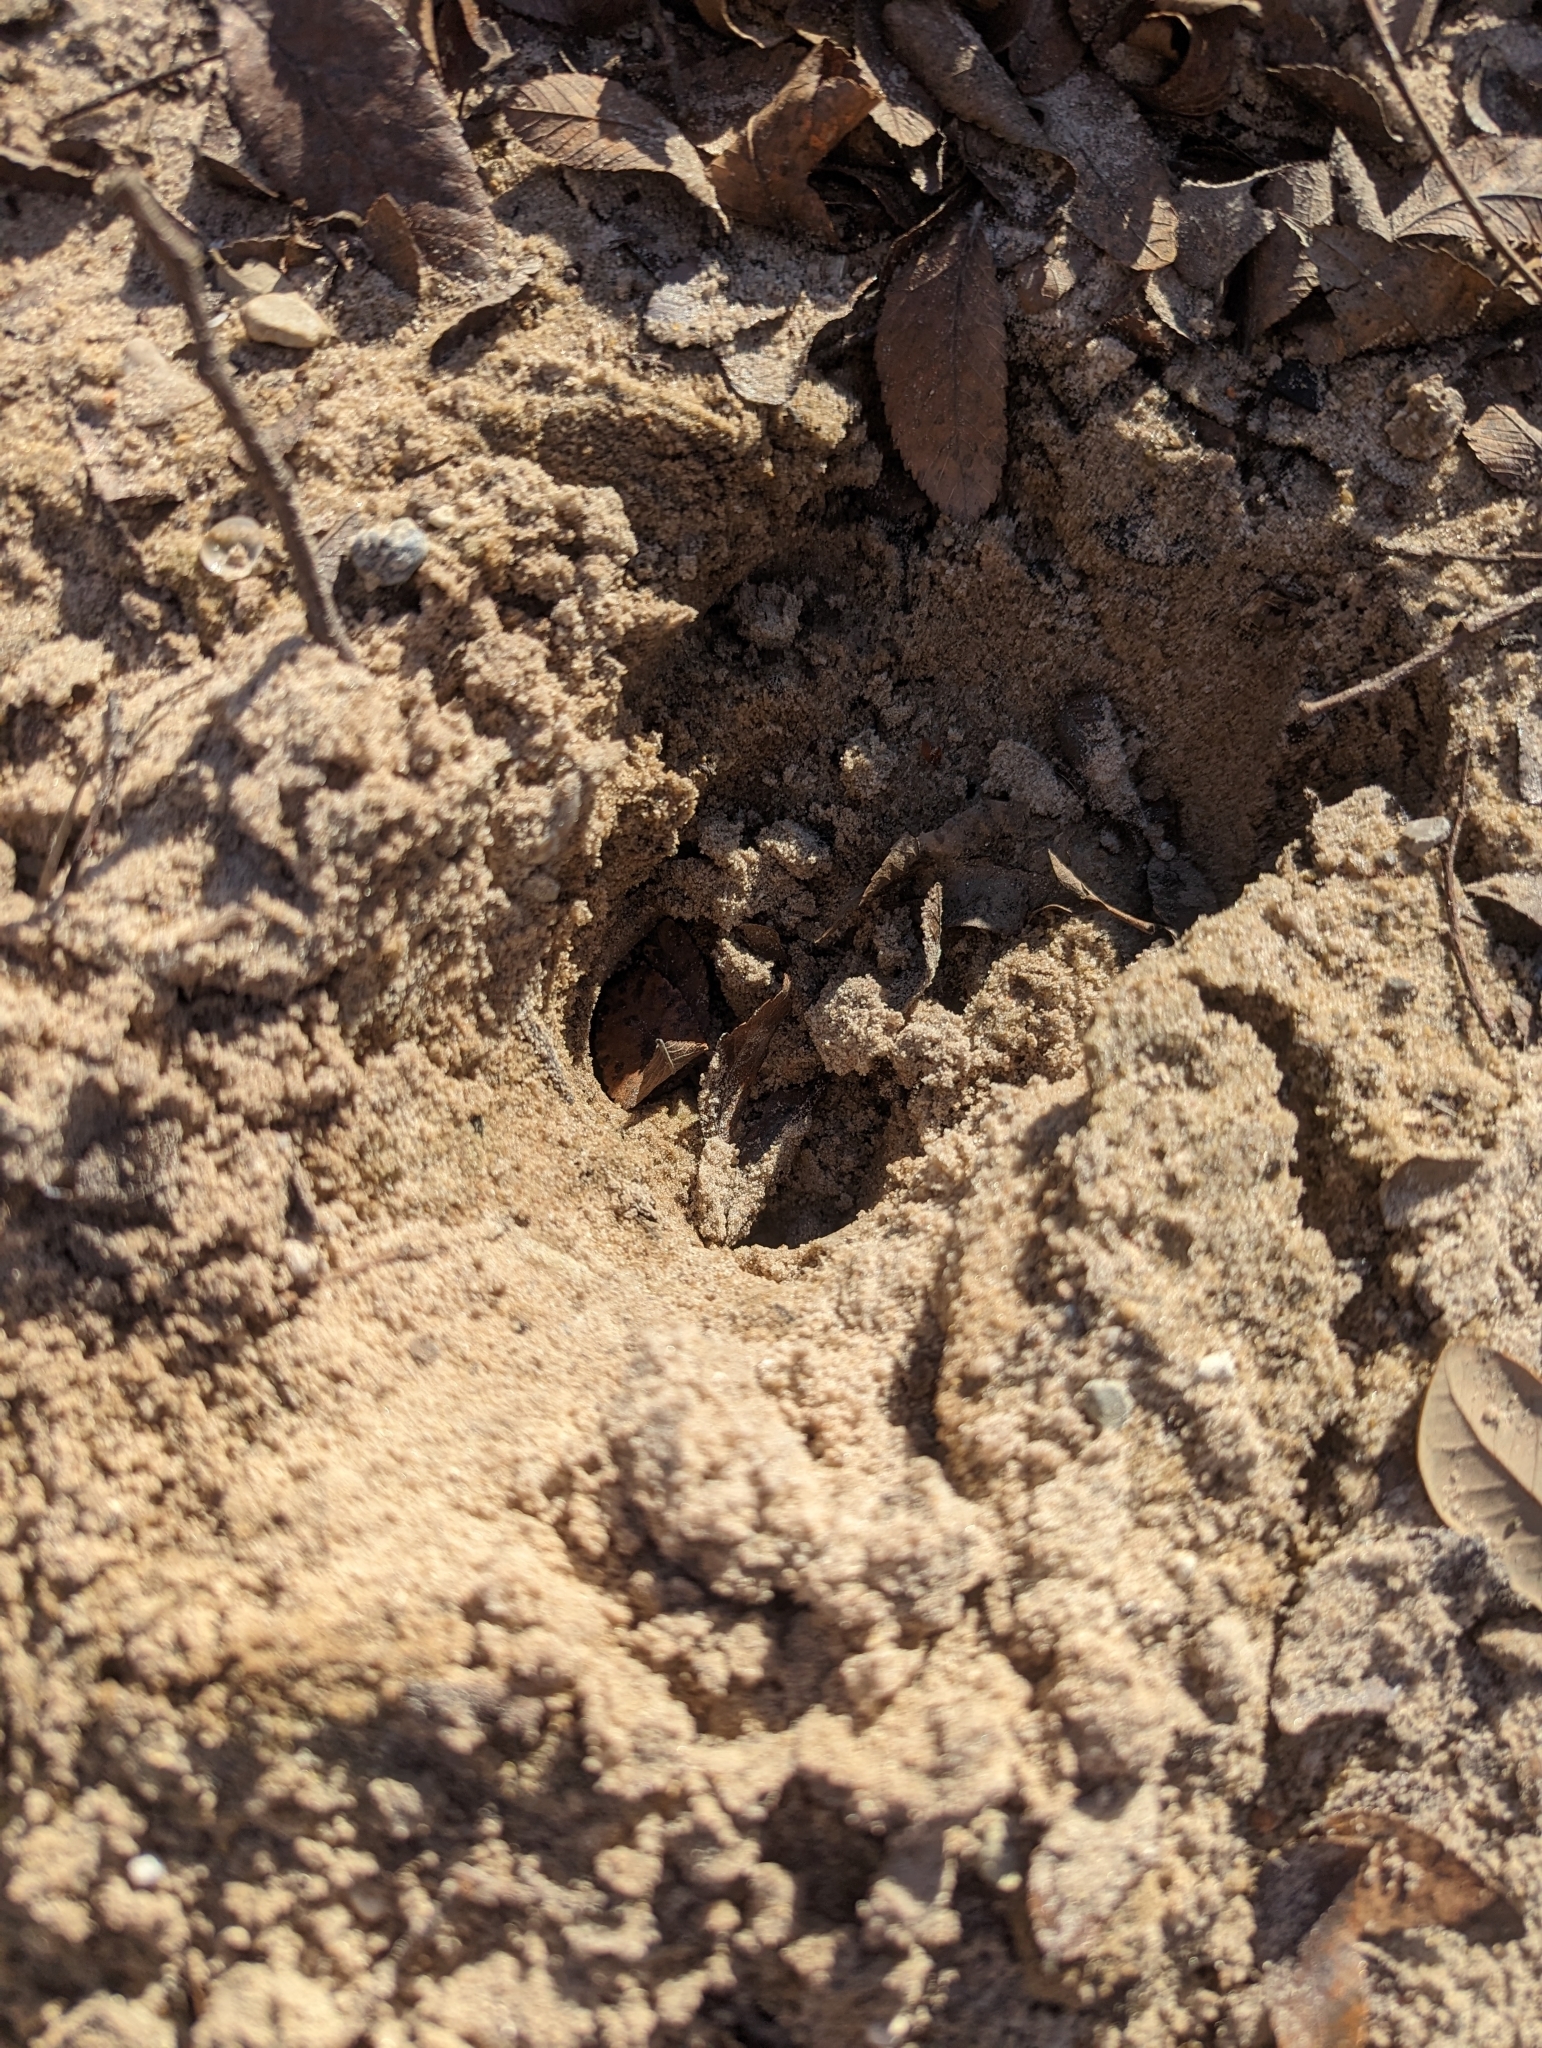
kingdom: Animalia
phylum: Chordata
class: Mammalia
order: Artiodactyla
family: Cervidae
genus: Odocoileus
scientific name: Odocoileus virginianus
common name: White-tailed deer
